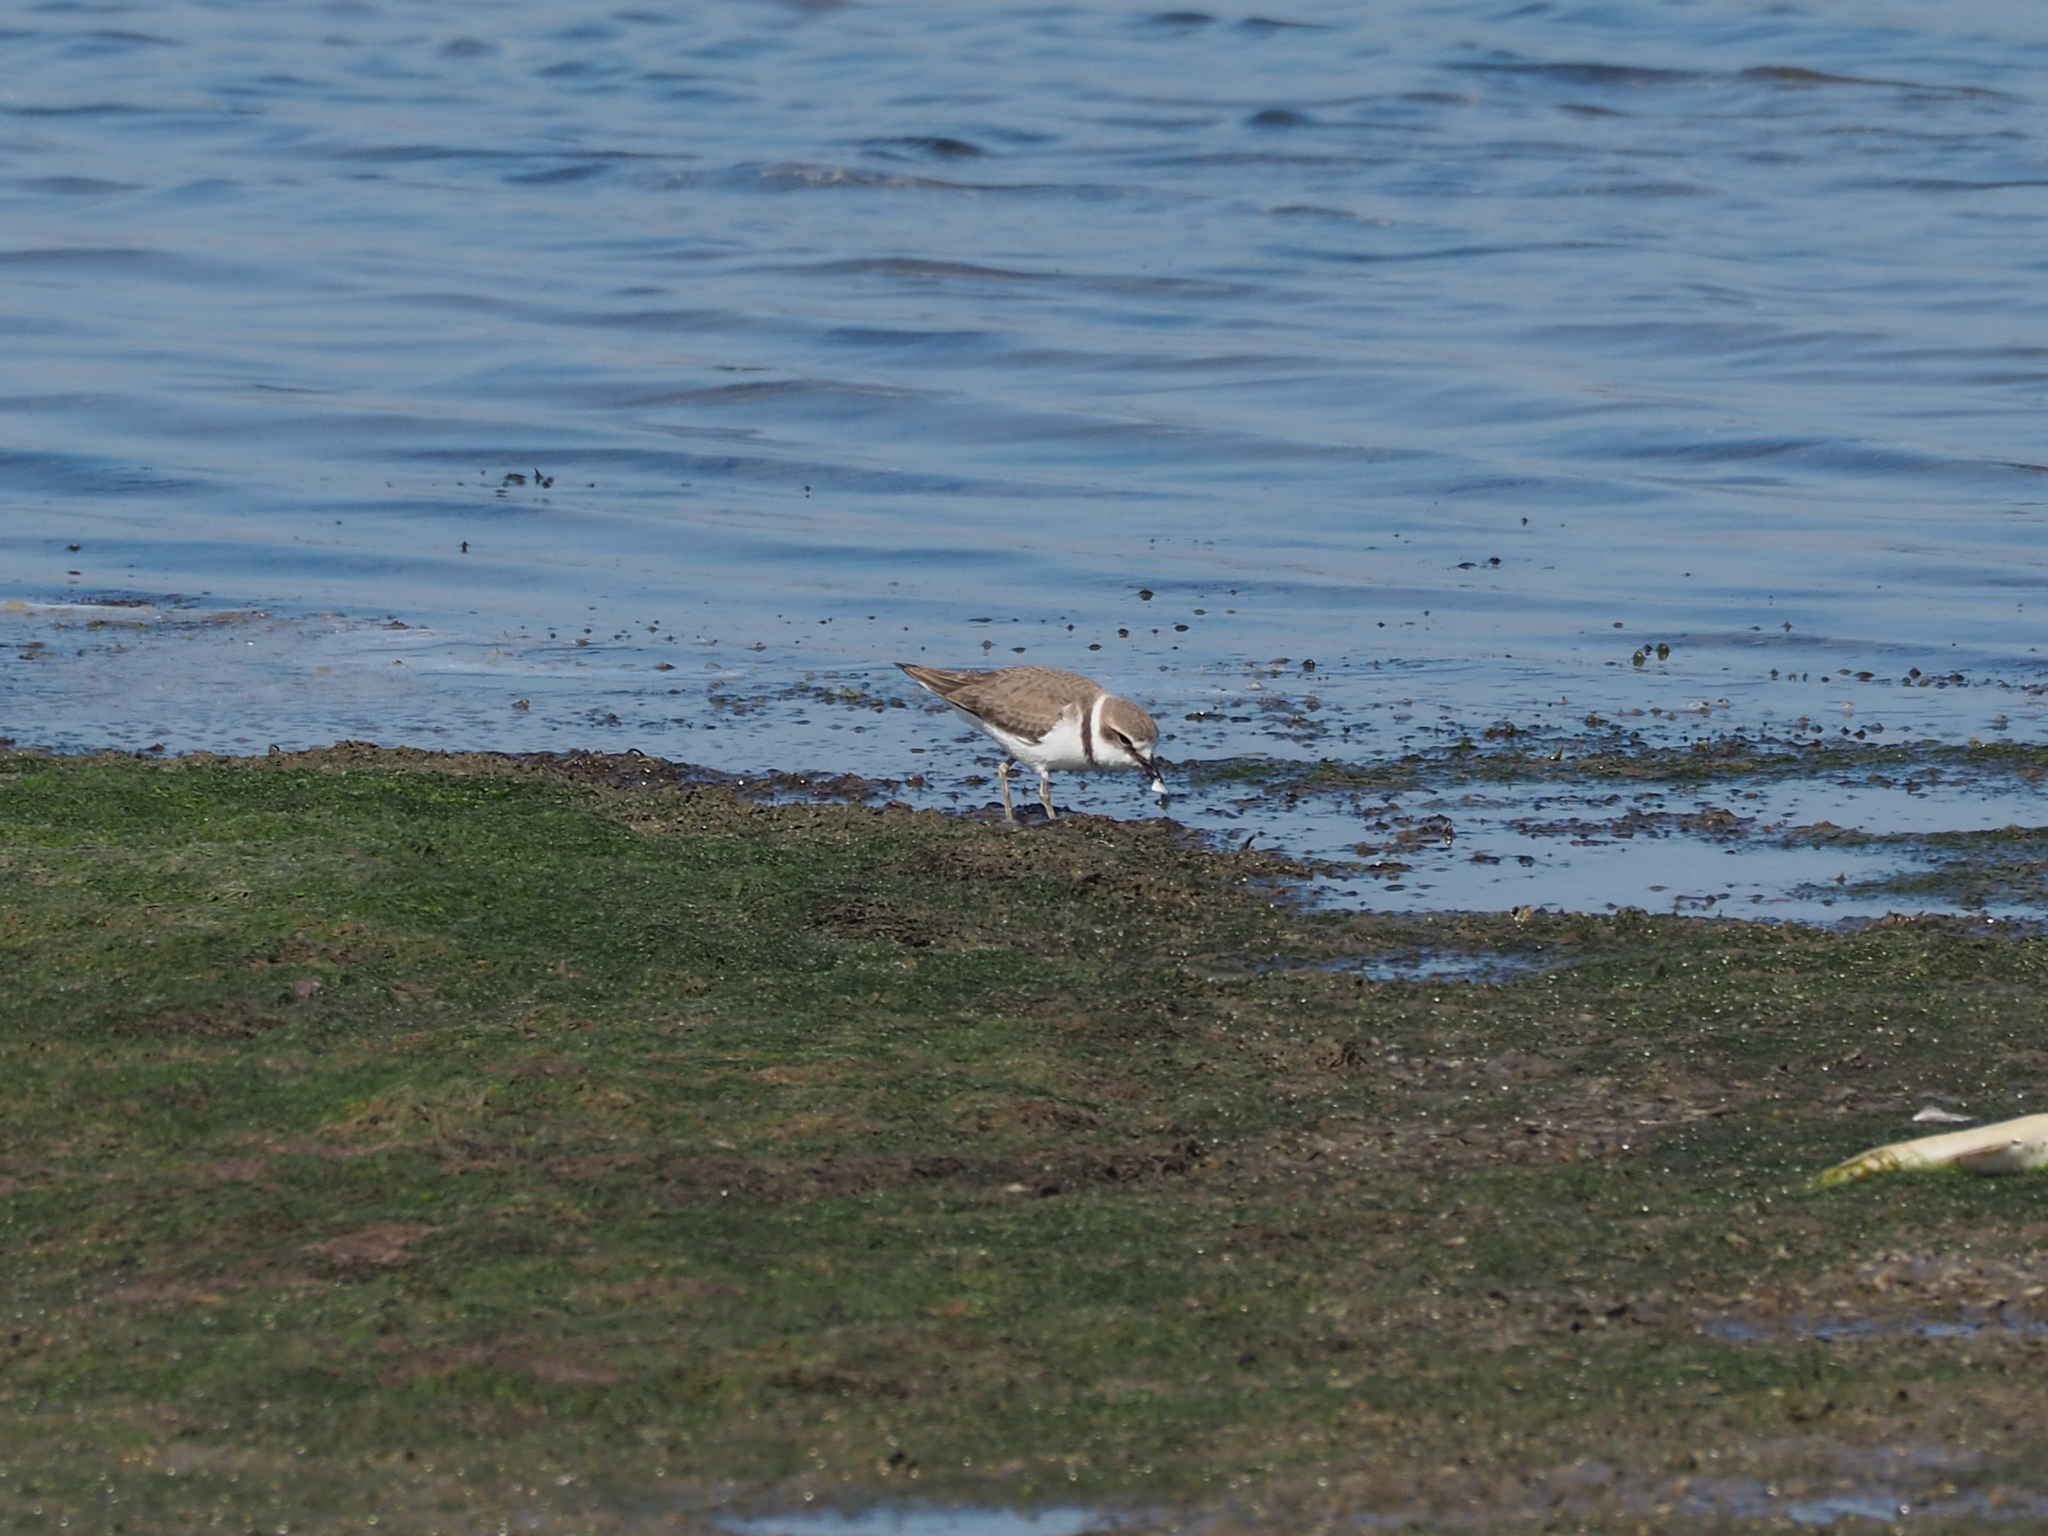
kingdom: Animalia
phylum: Chordata
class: Aves
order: Charadriiformes
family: Charadriidae
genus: Charadrius
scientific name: Charadrius alexandrinus
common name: Kentish plover
